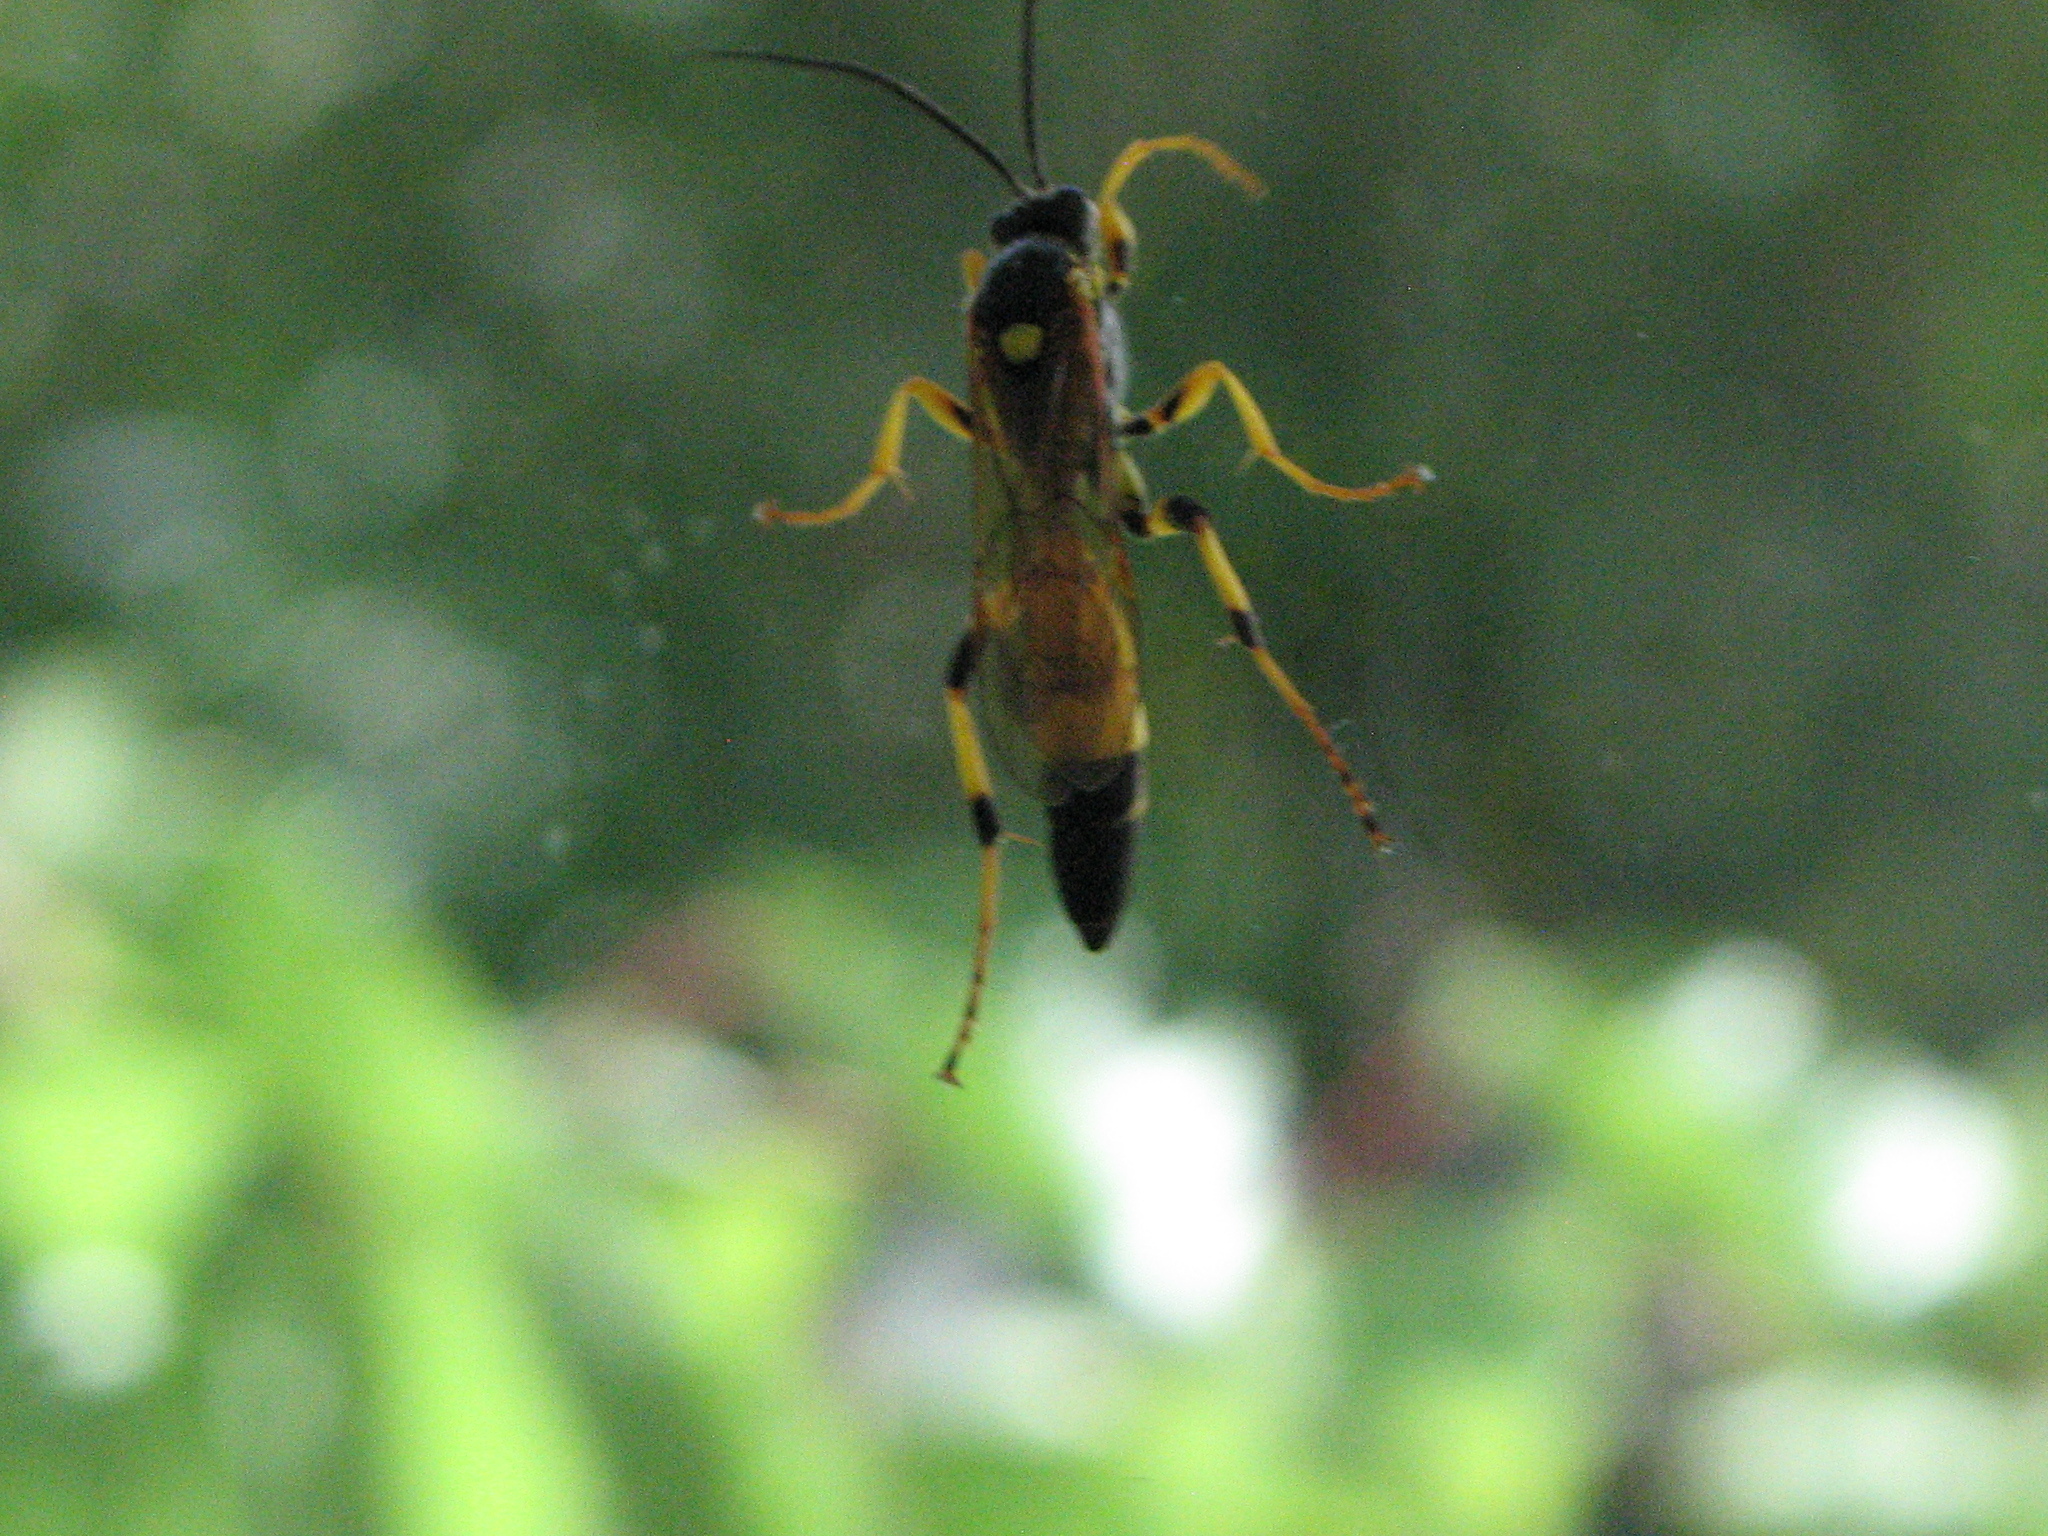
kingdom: Animalia
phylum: Arthropoda
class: Insecta
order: Hymenoptera
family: Ichneumonidae
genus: Ichneumon
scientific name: Ichneumon xanthorius
